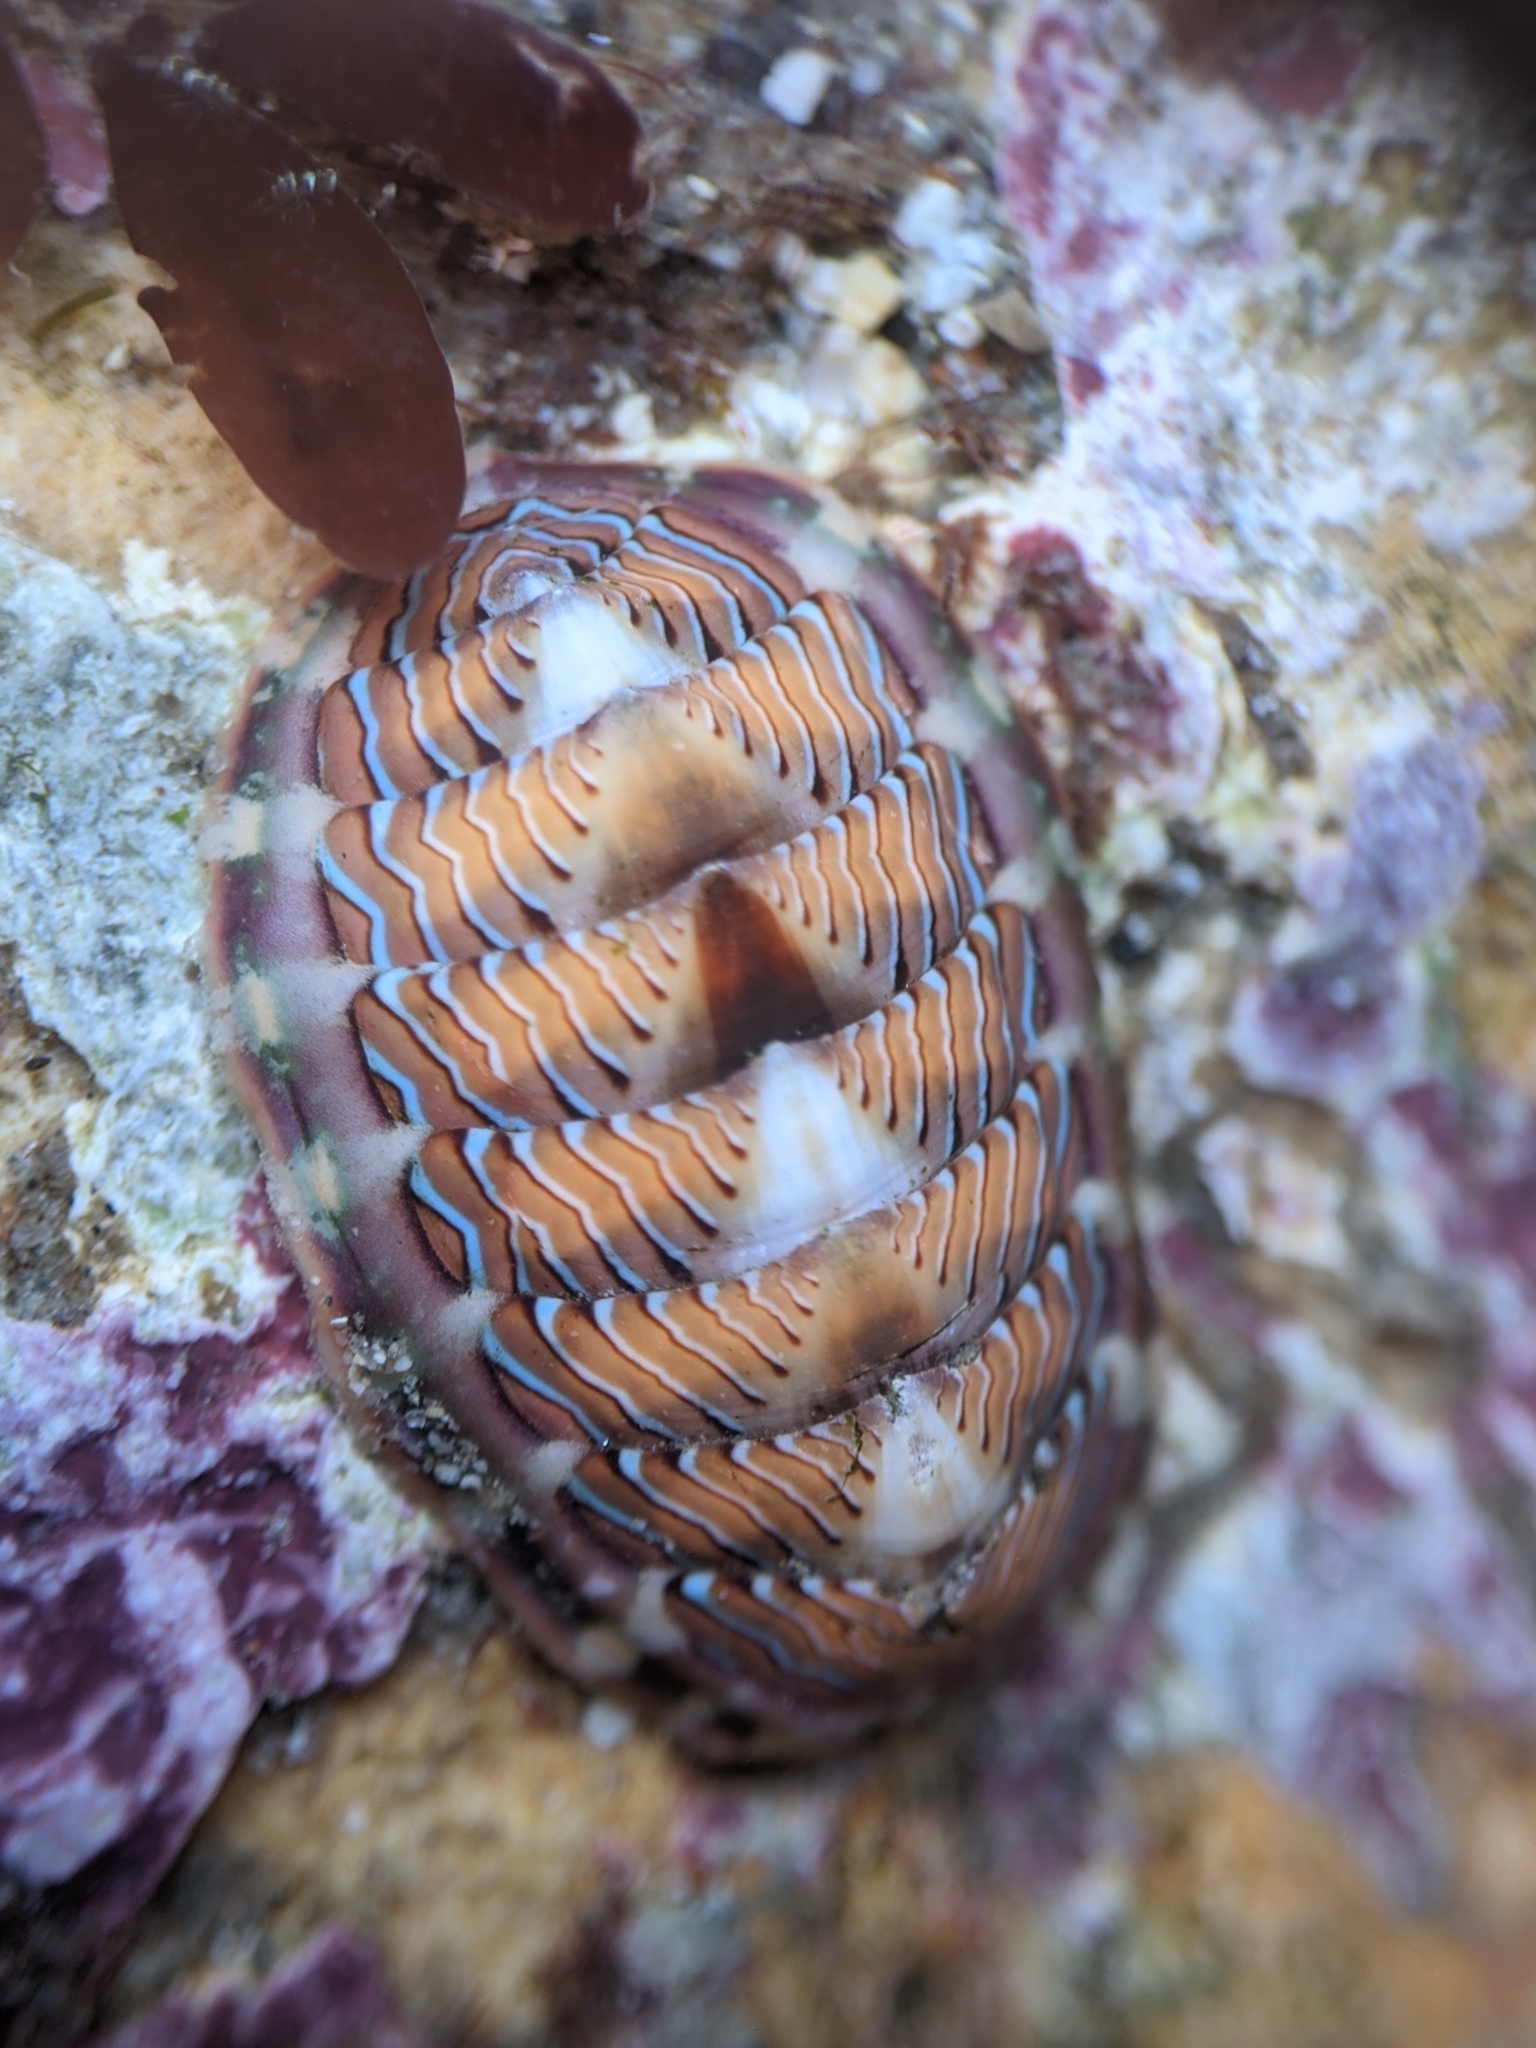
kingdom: Animalia
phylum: Mollusca
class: Polyplacophora
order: Chitonida
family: Tonicellidae
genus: Tonicella
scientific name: Tonicella lineata
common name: Lined chiton
